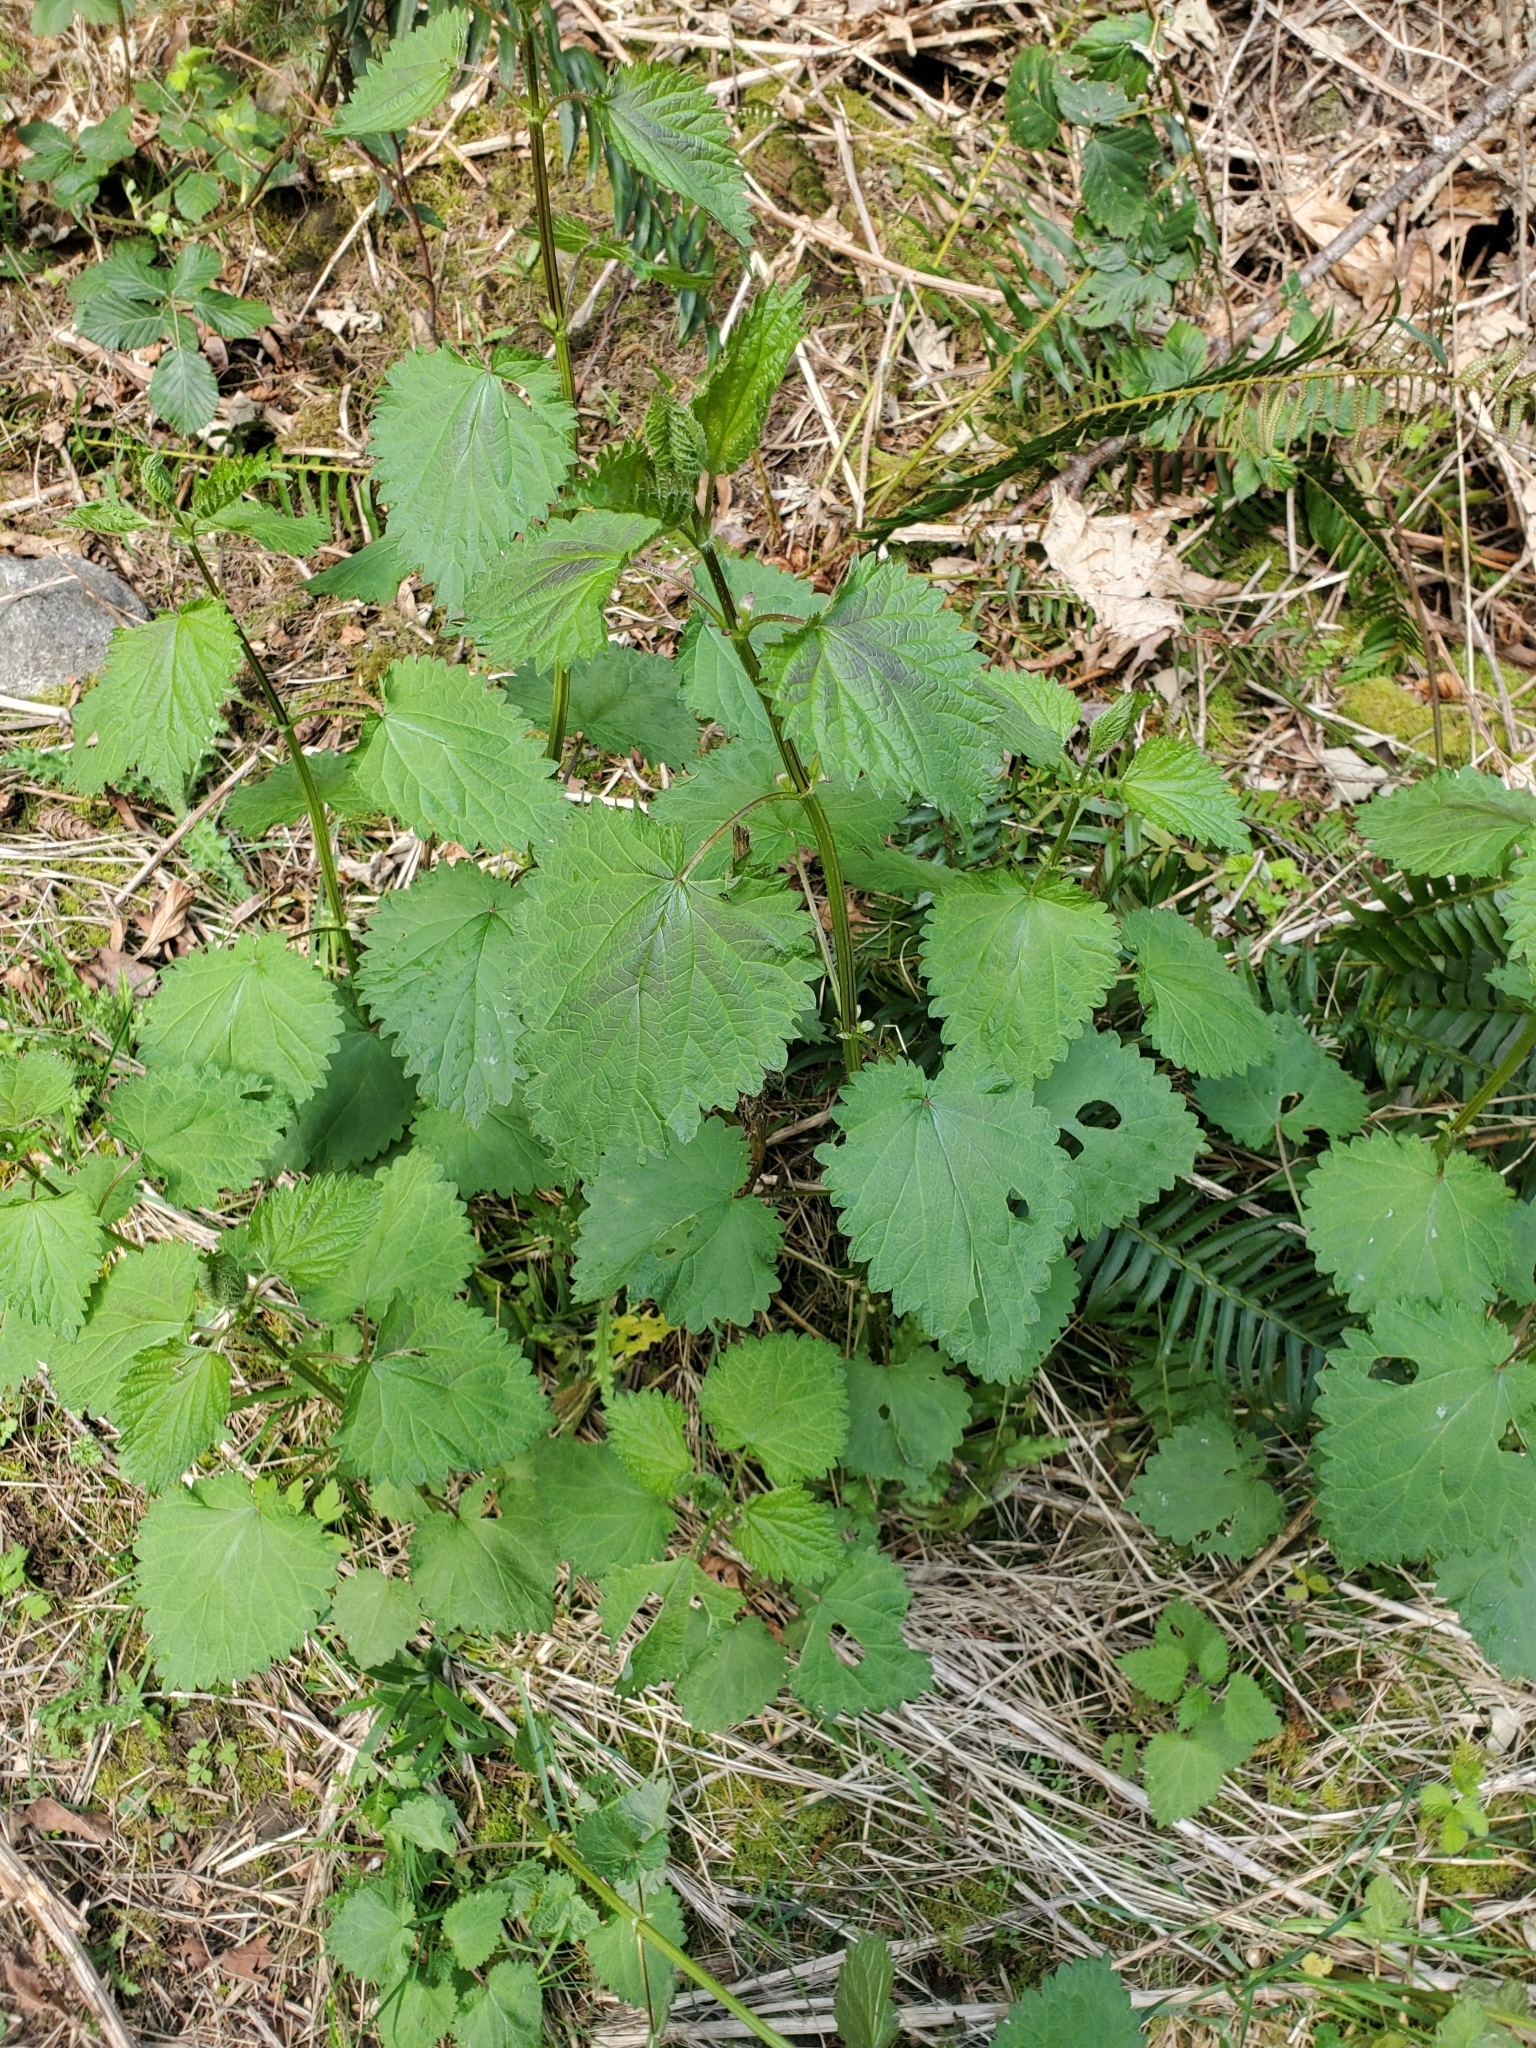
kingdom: Plantae
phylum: Tracheophyta
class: Magnoliopsida
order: Rosales
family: Urticaceae
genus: Urtica
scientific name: Urtica dioica
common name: Common nettle
